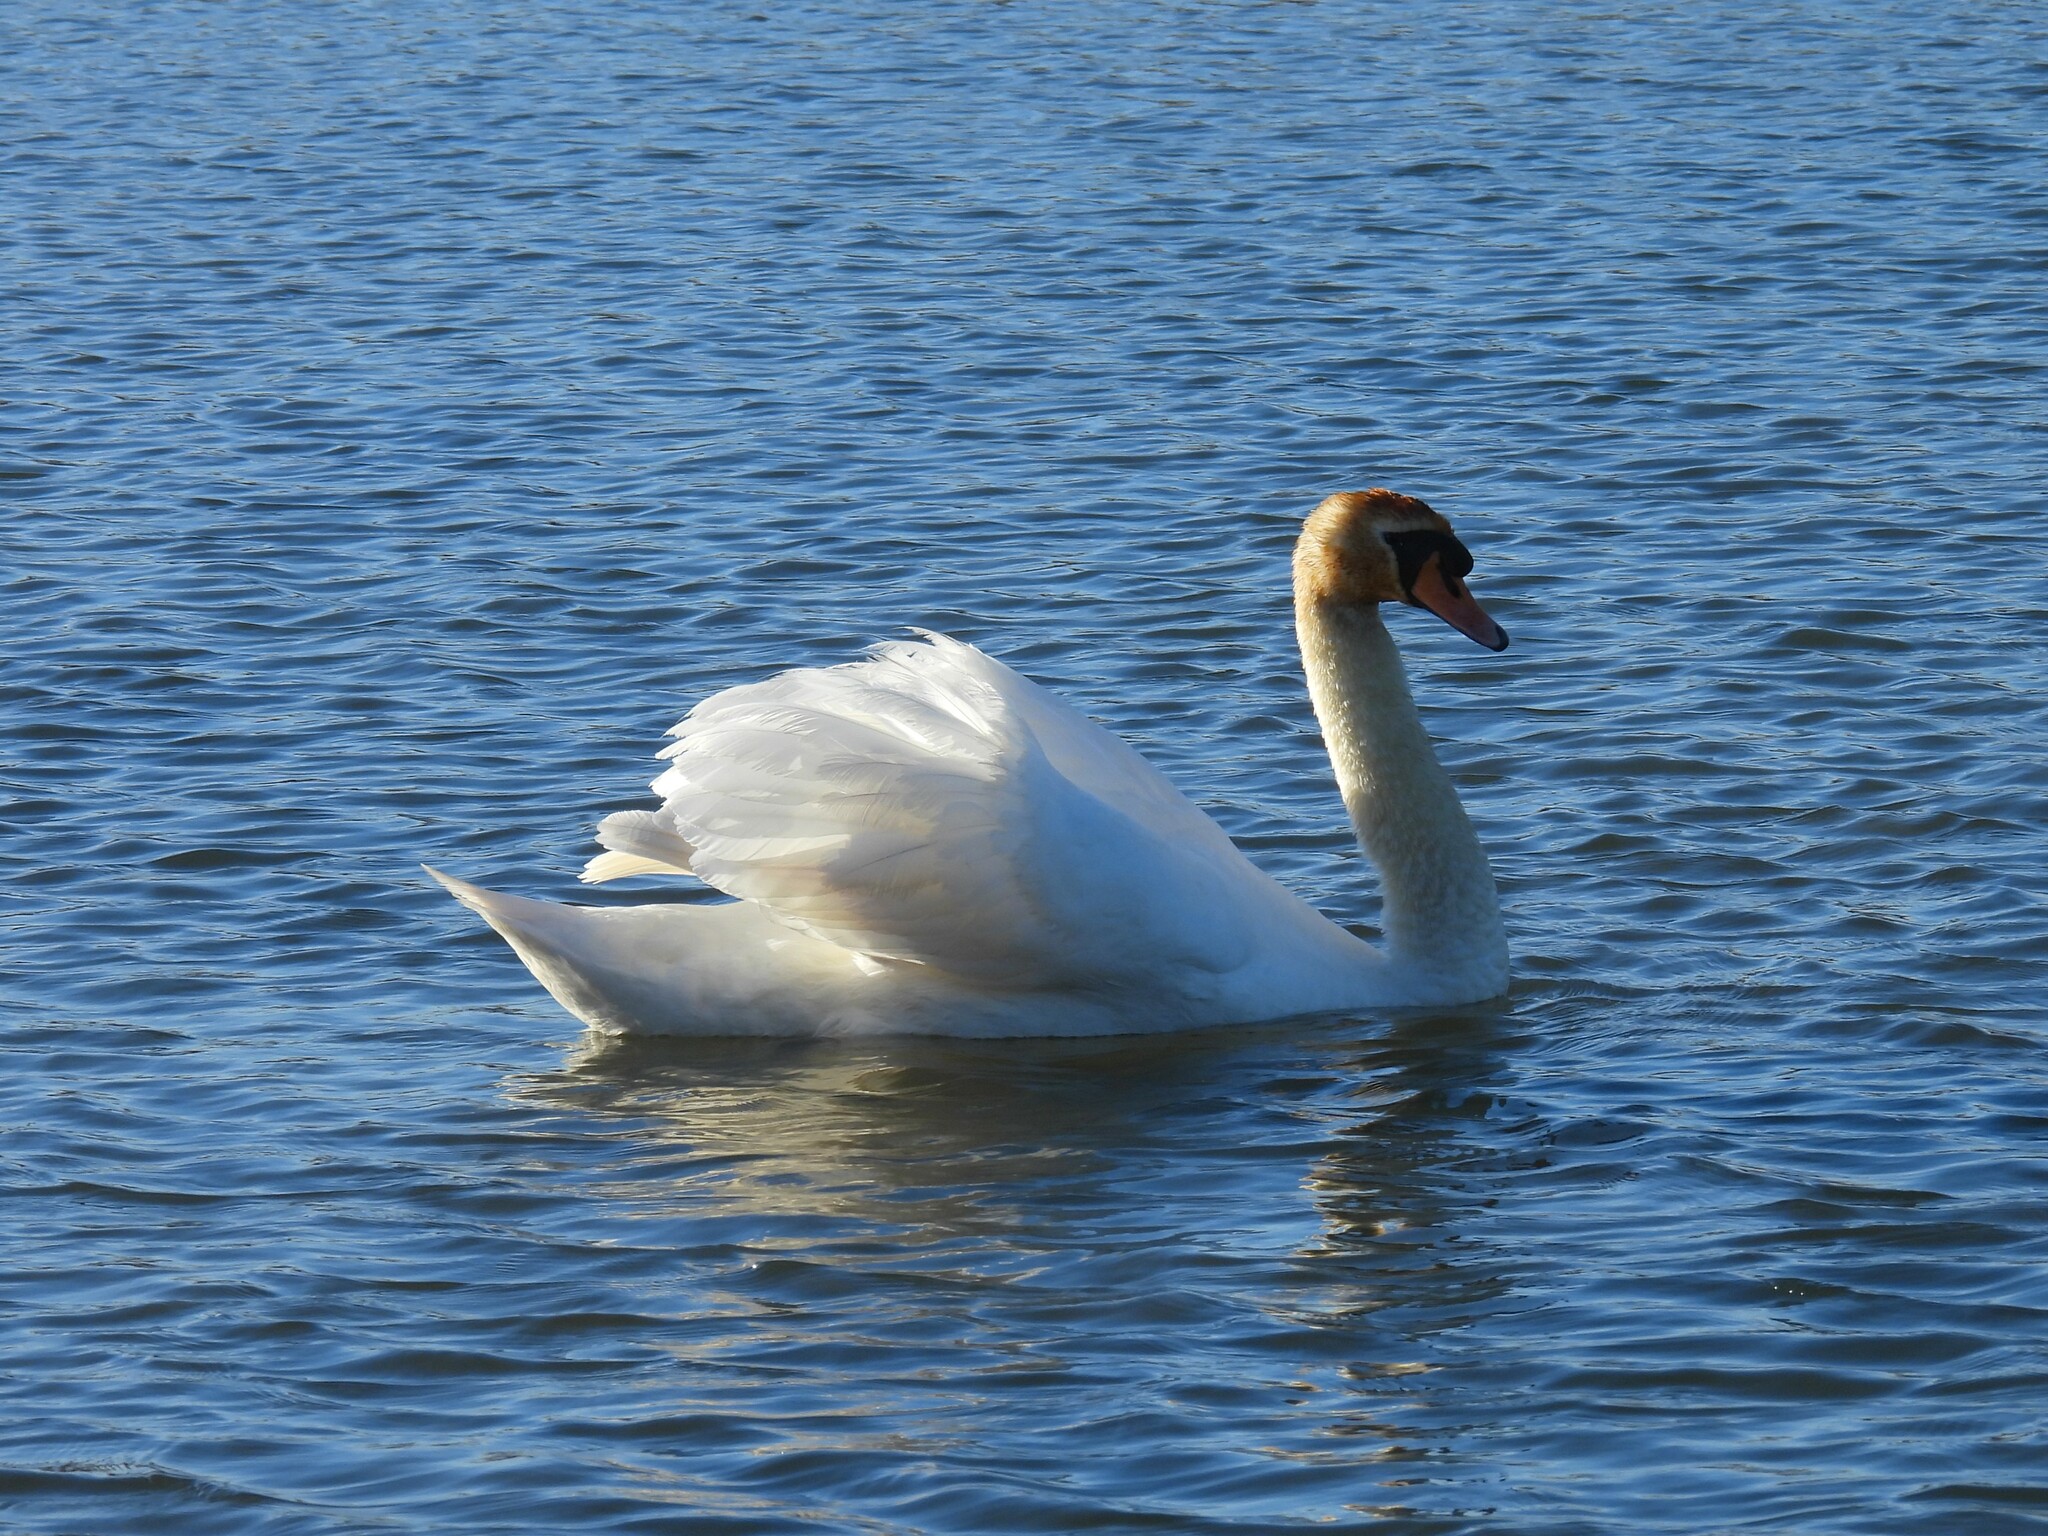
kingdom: Animalia
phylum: Chordata
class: Aves
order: Anseriformes
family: Anatidae
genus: Cygnus
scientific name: Cygnus olor
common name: Mute swan
